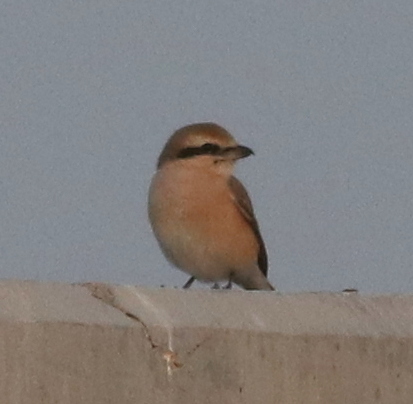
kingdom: Animalia
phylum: Chordata
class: Aves
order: Passeriformes
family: Laniidae
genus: Lanius
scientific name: Lanius isabellinus
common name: Isabelline shrike
